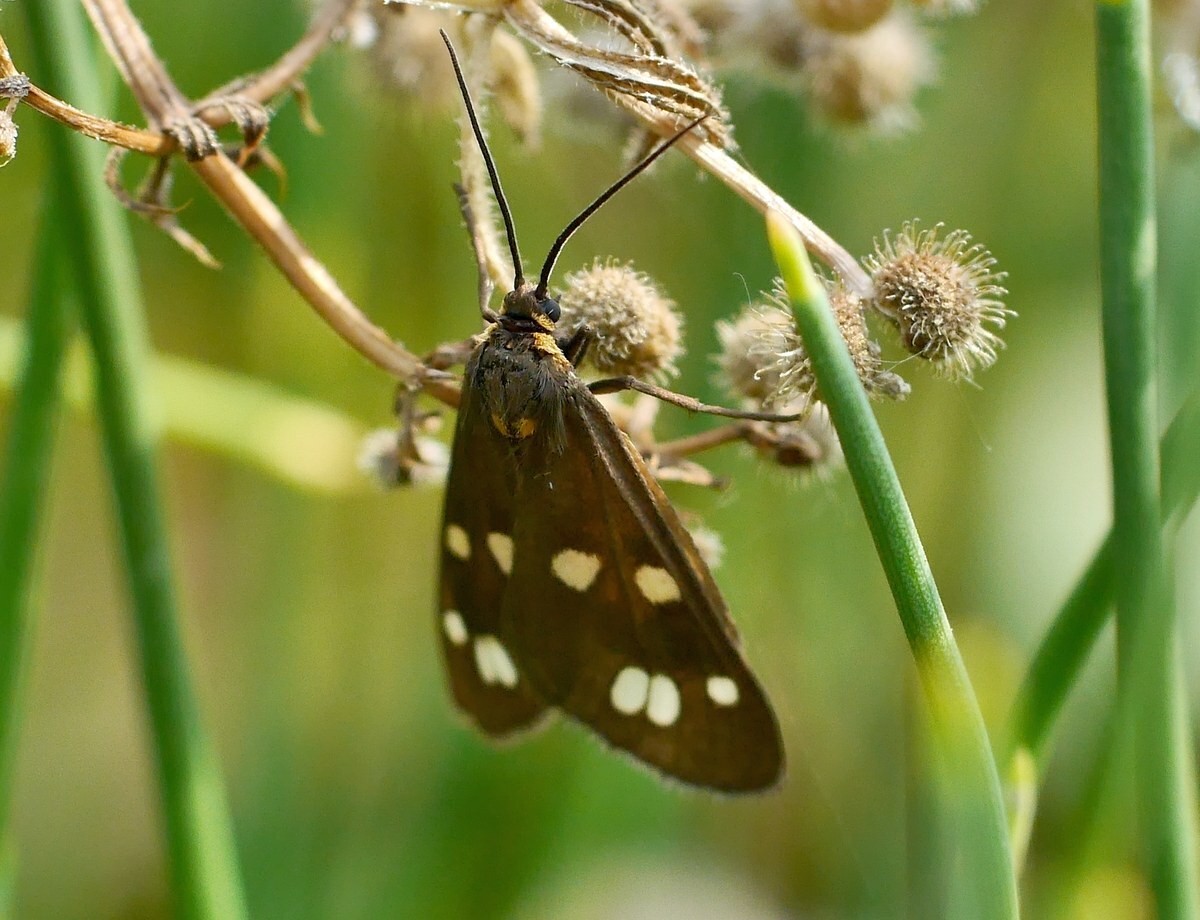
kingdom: Animalia
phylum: Arthropoda
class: Insecta
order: Lepidoptera
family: Erebidae
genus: Dysauxes
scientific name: Dysauxes punctata
